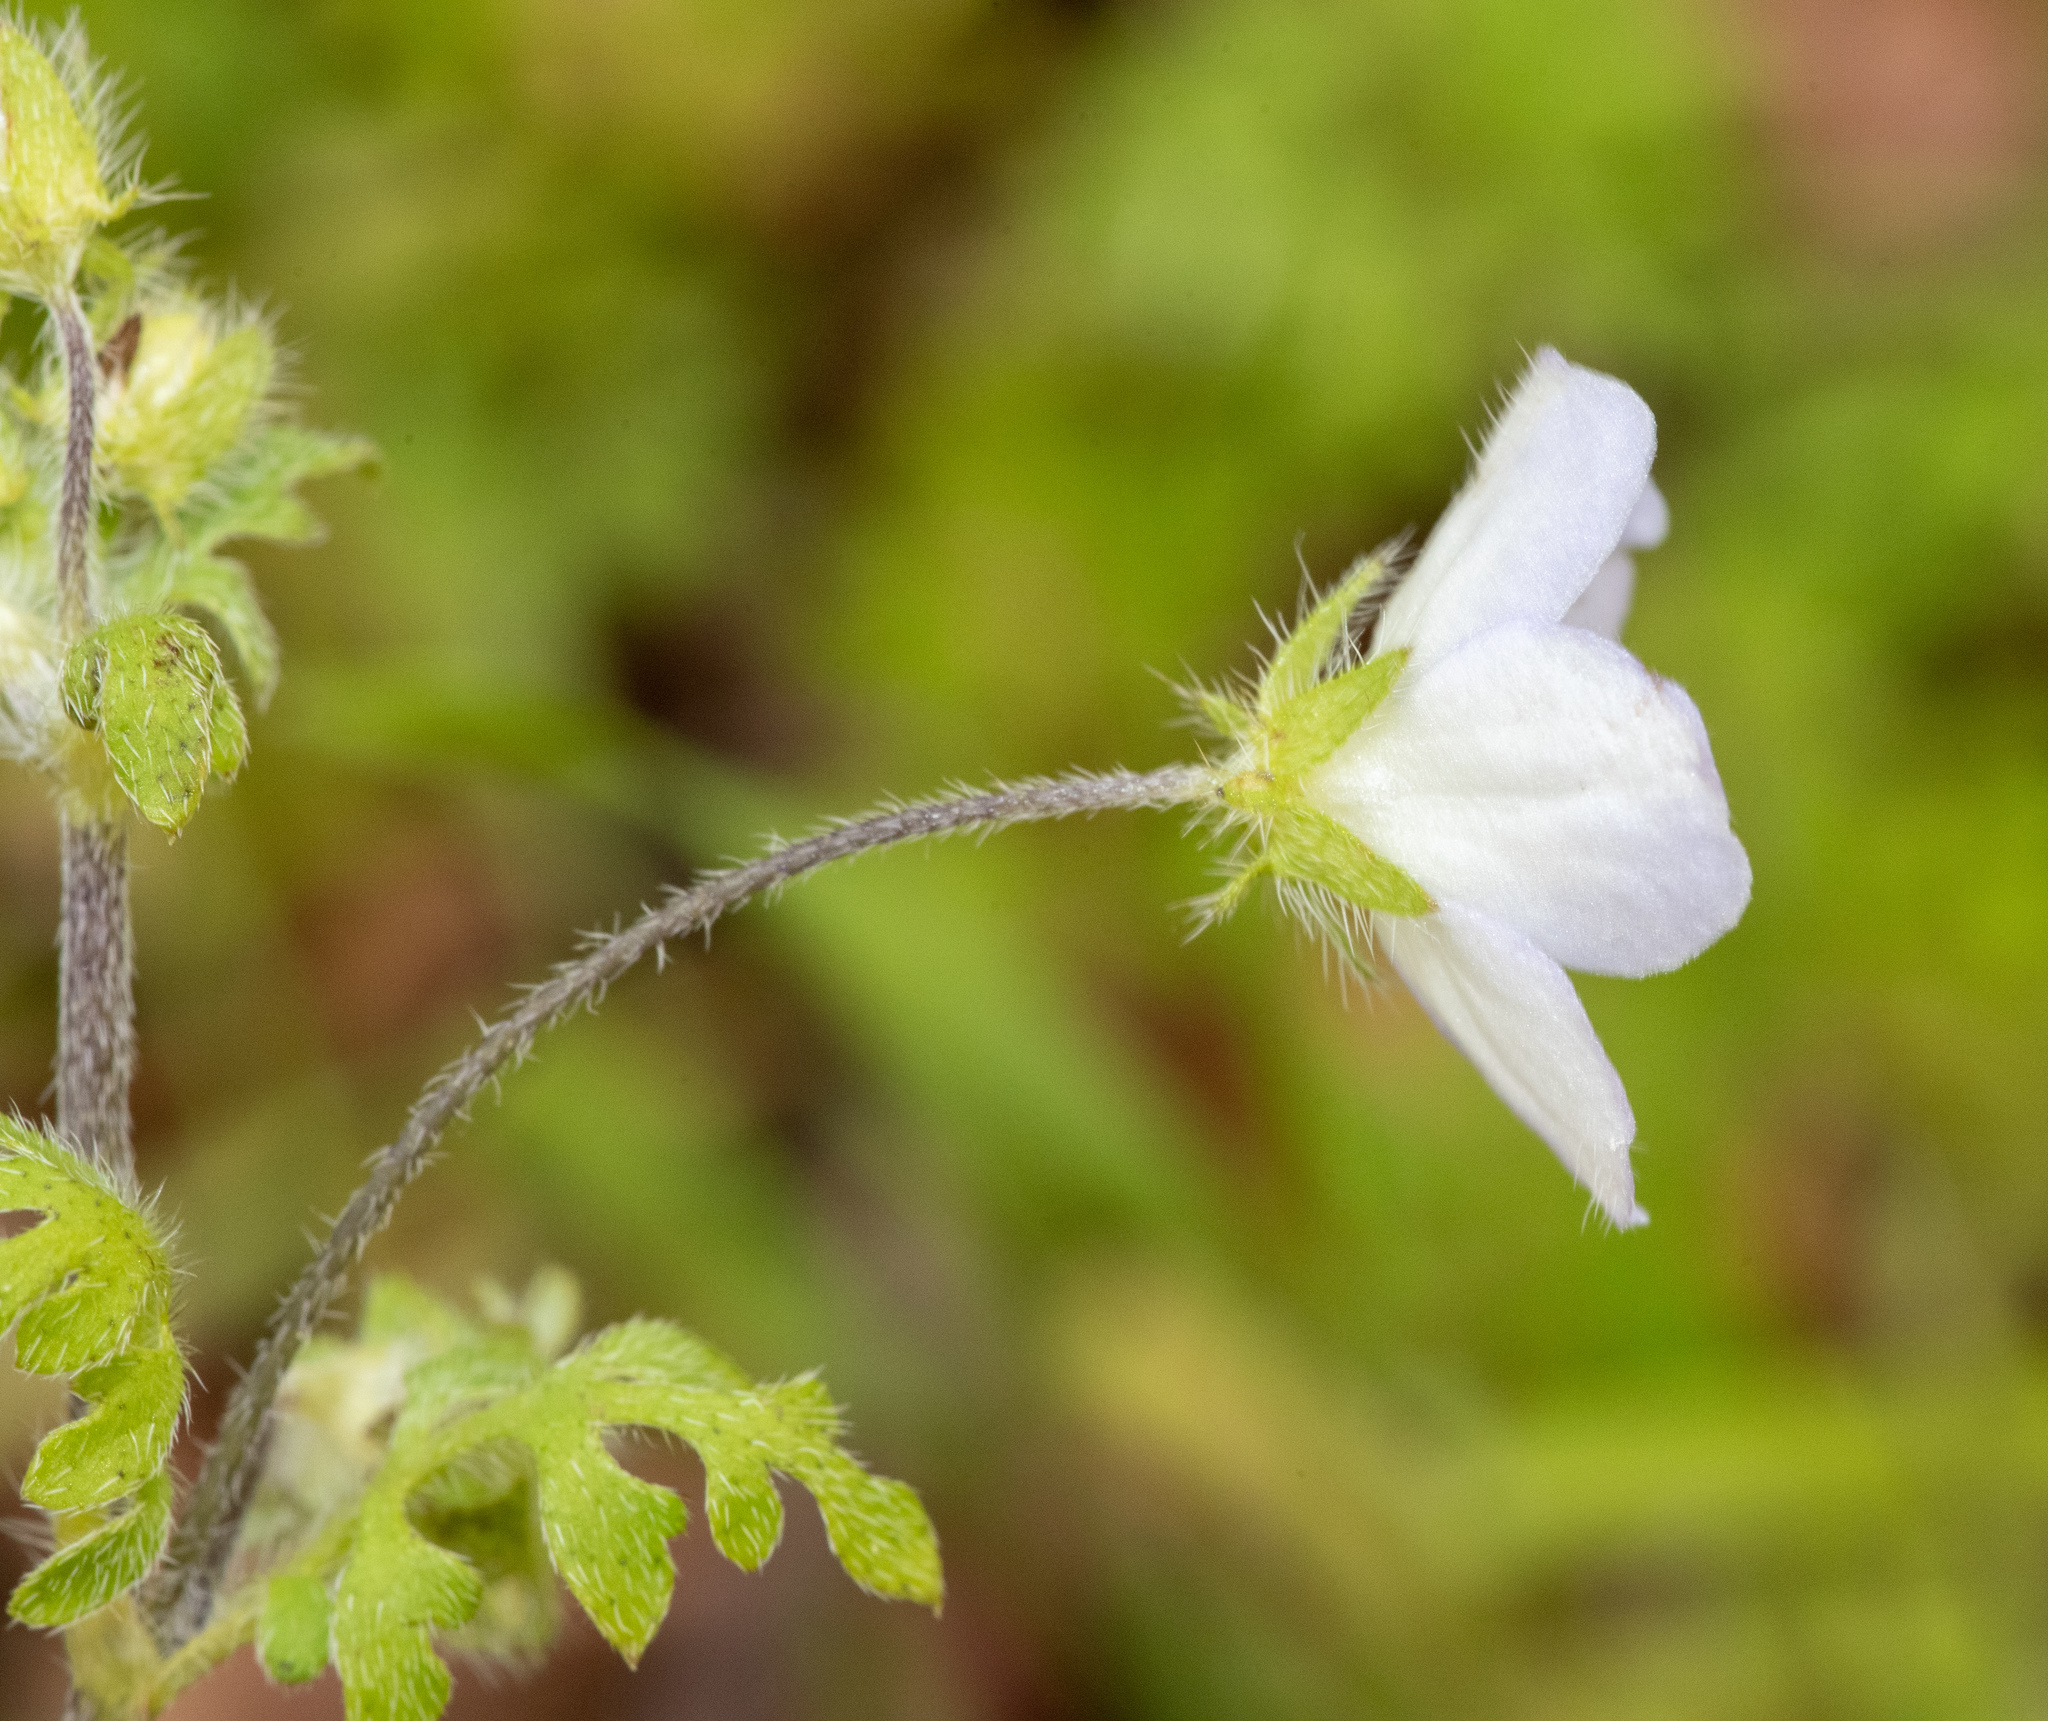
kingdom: Plantae
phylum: Tracheophyta
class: Magnoliopsida
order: Boraginales
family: Hydrophyllaceae
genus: Nemophila
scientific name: Nemophila heterophylla
